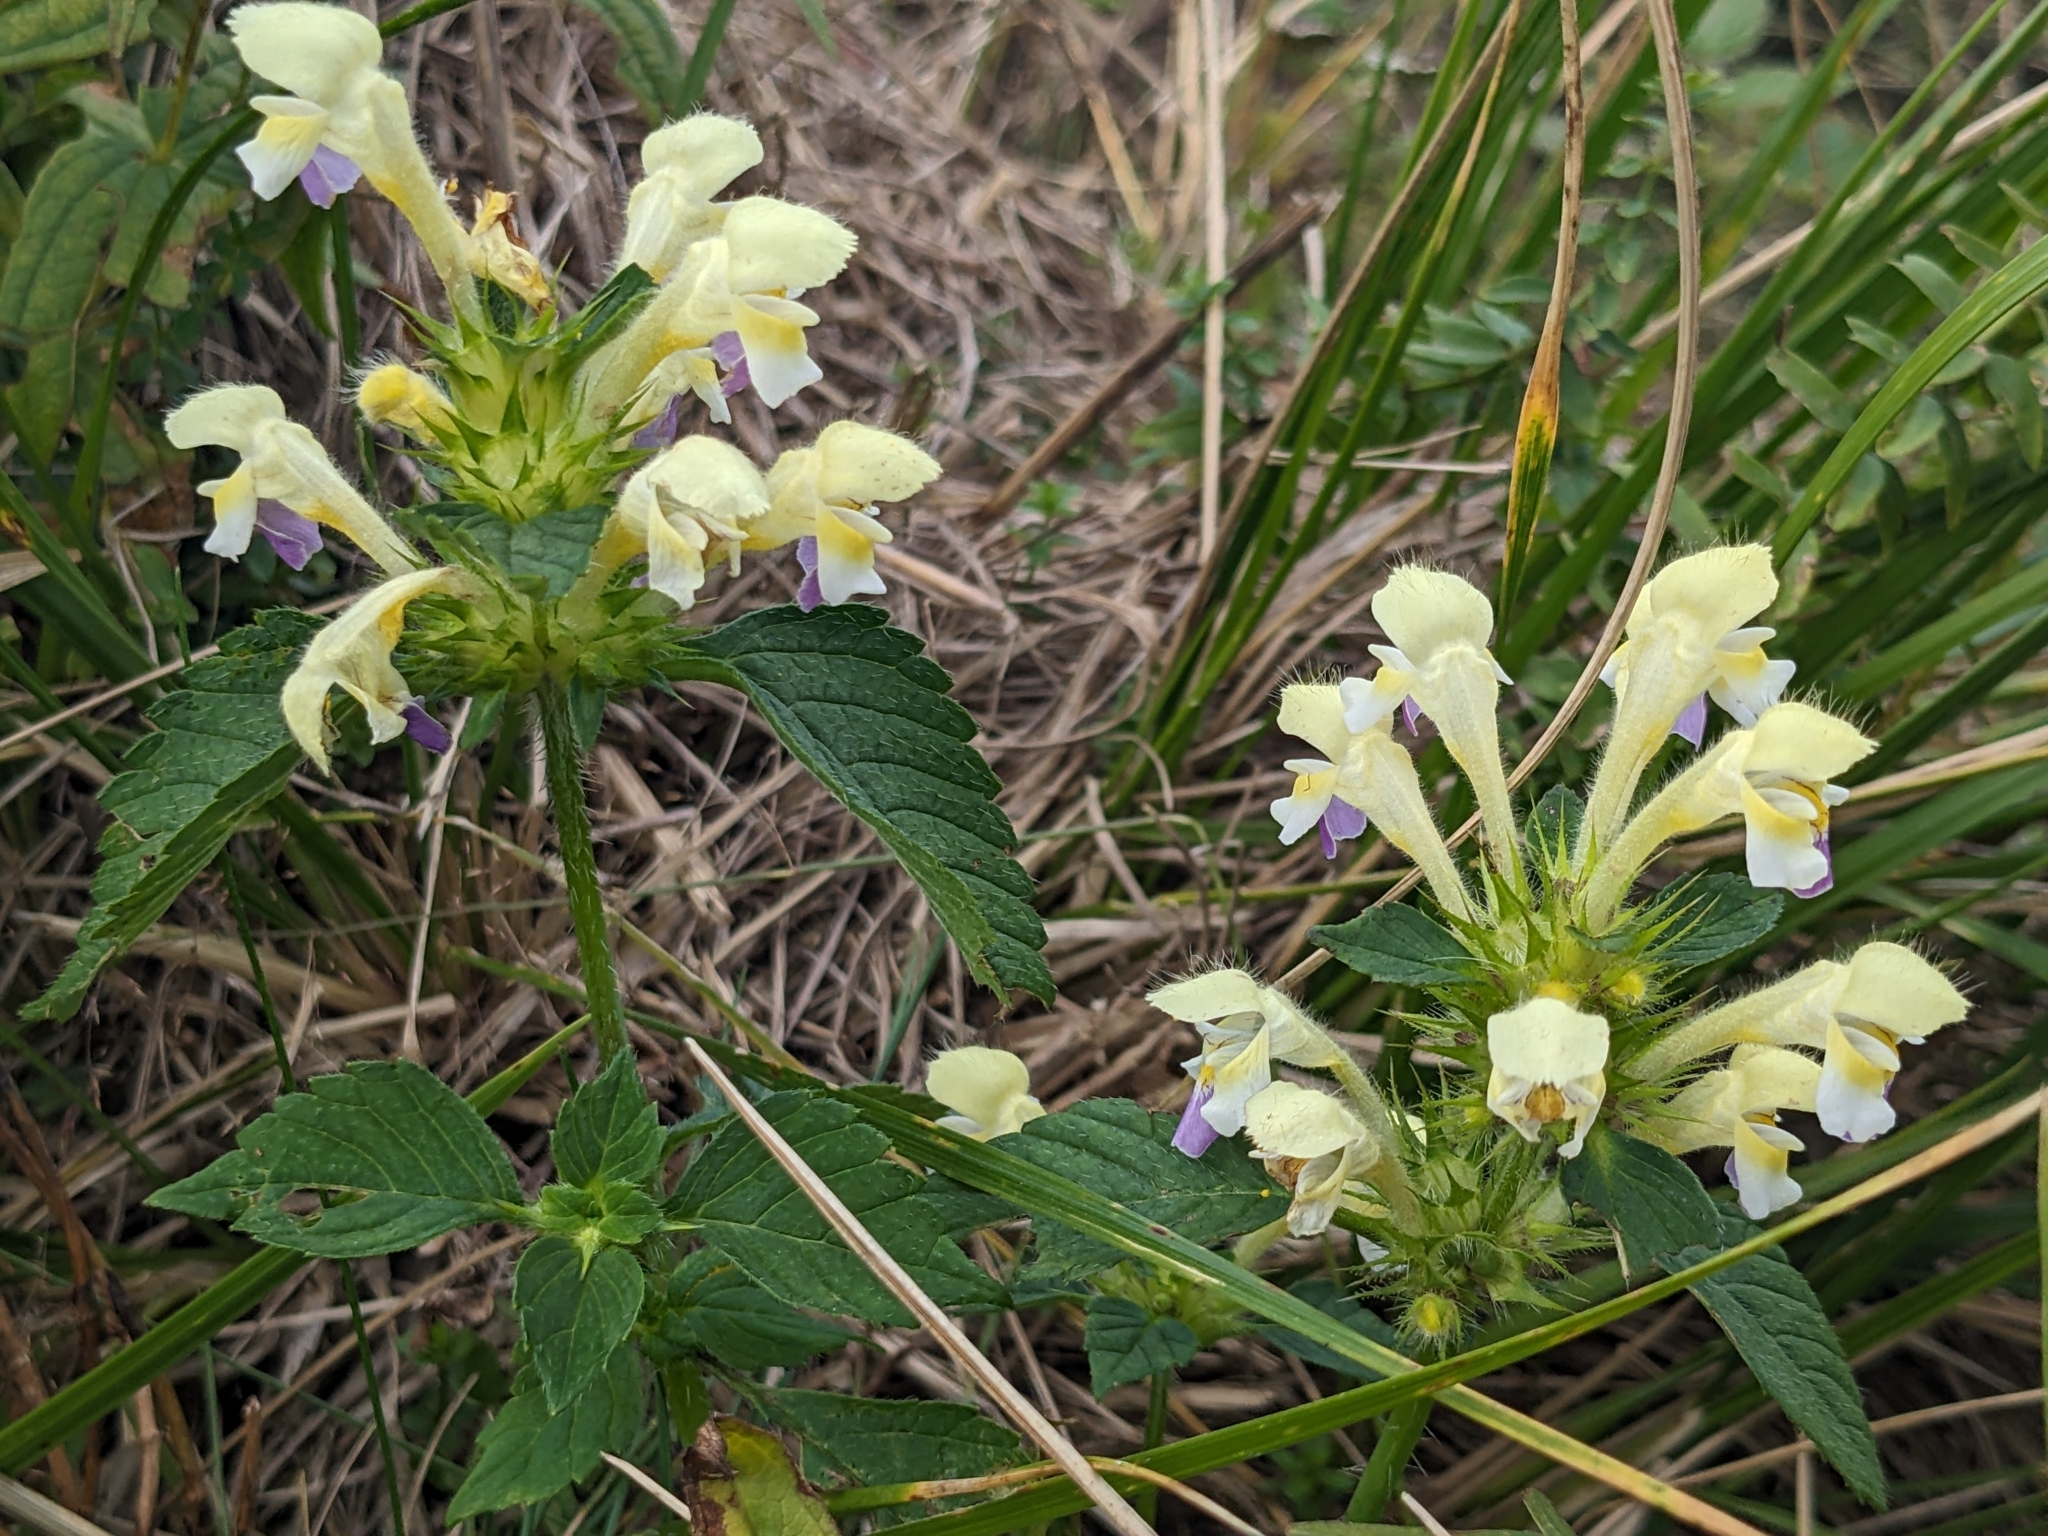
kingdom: Plantae
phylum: Tracheophyta
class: Magnoliopsida
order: Lamiales
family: Lamiaceae
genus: Galeopsis
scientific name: Galeopsis speciosa
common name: Large-flowered hemp-nettle
